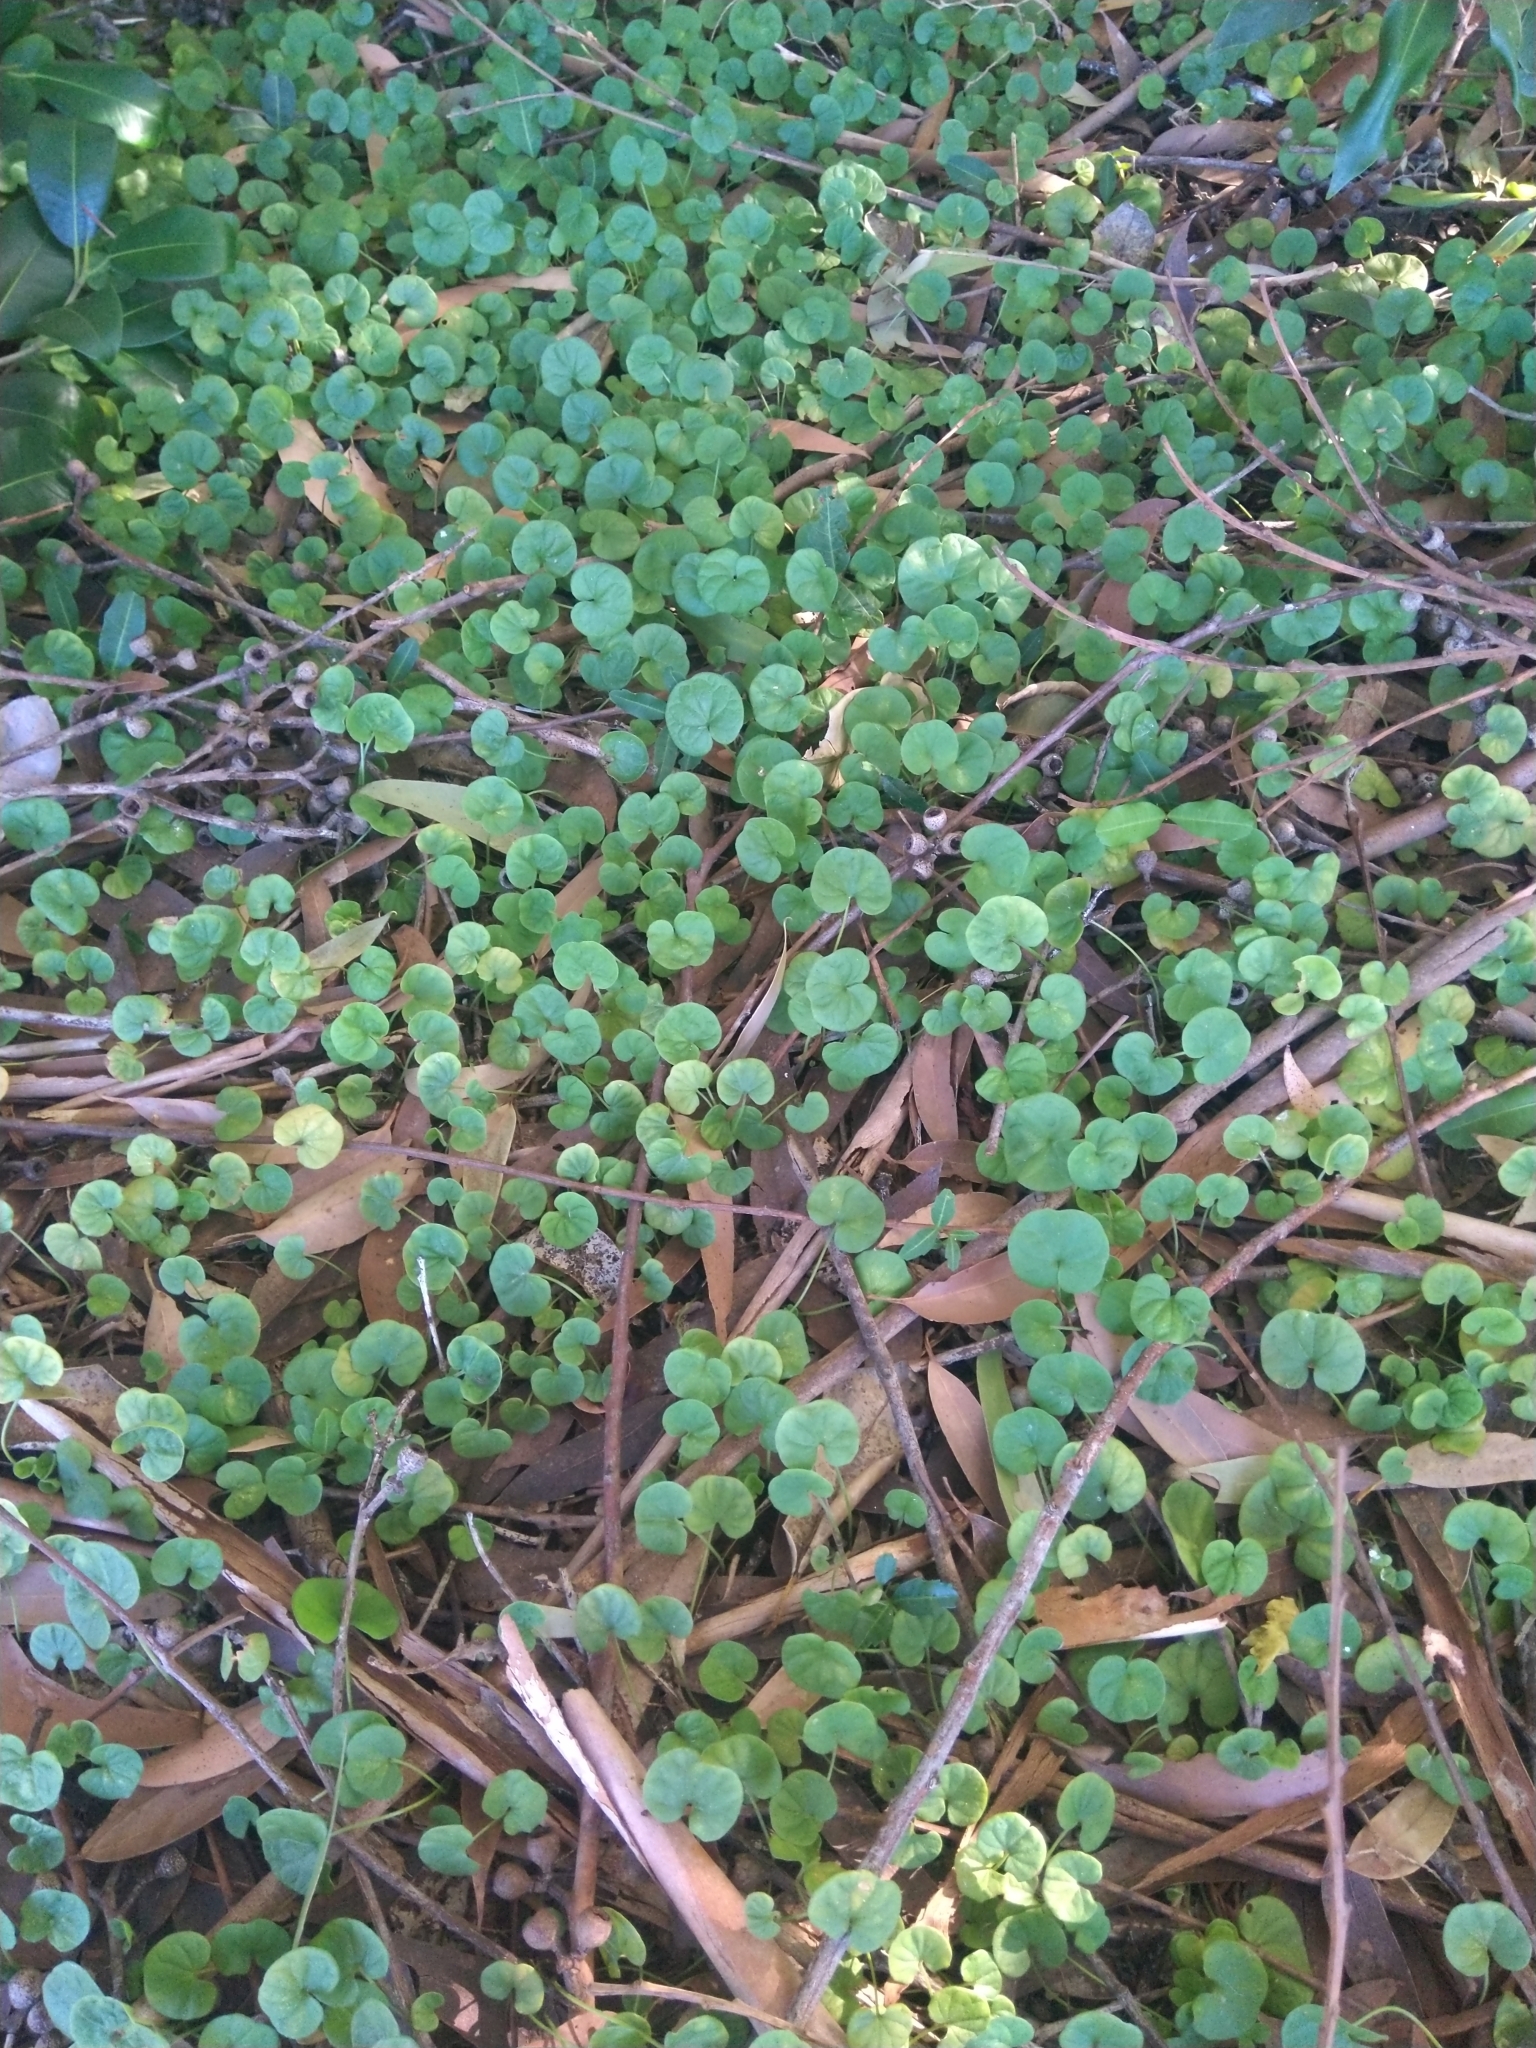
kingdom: Plantae
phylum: Tracheophyta
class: Magnoliopsida
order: Solanales
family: Convolvulaceae
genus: Dichondra
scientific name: Dichondra repens
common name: Kidneyweed
